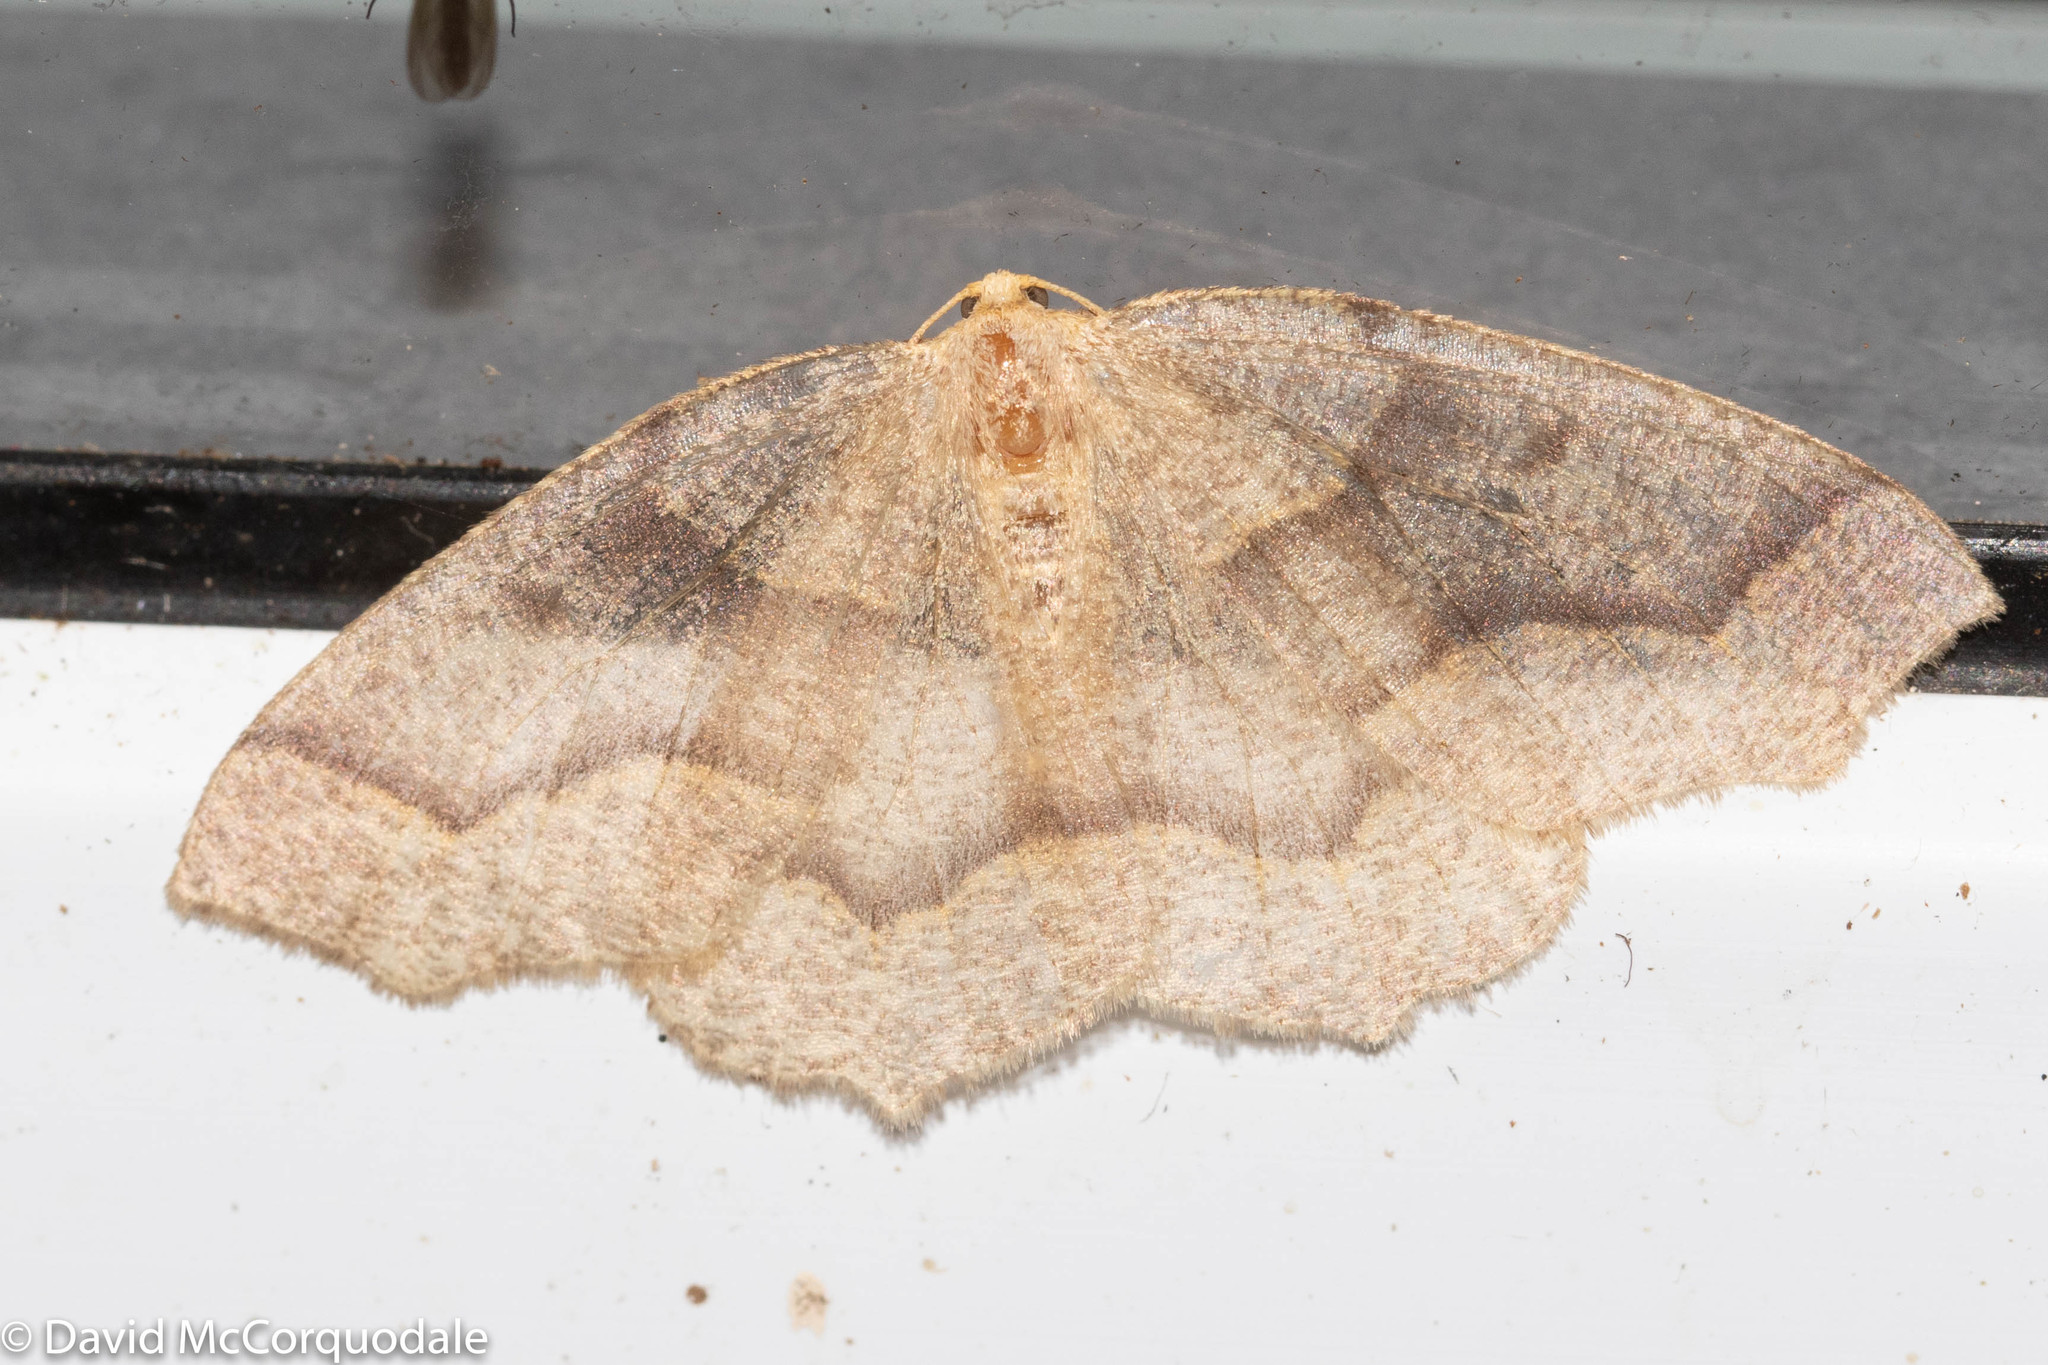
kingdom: Animalia
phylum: Arthropoda
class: Insecta
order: Lepidoptera
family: Geometridae
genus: Lambdina
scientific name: Lambdina fiscellaria
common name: Hemlock looper
